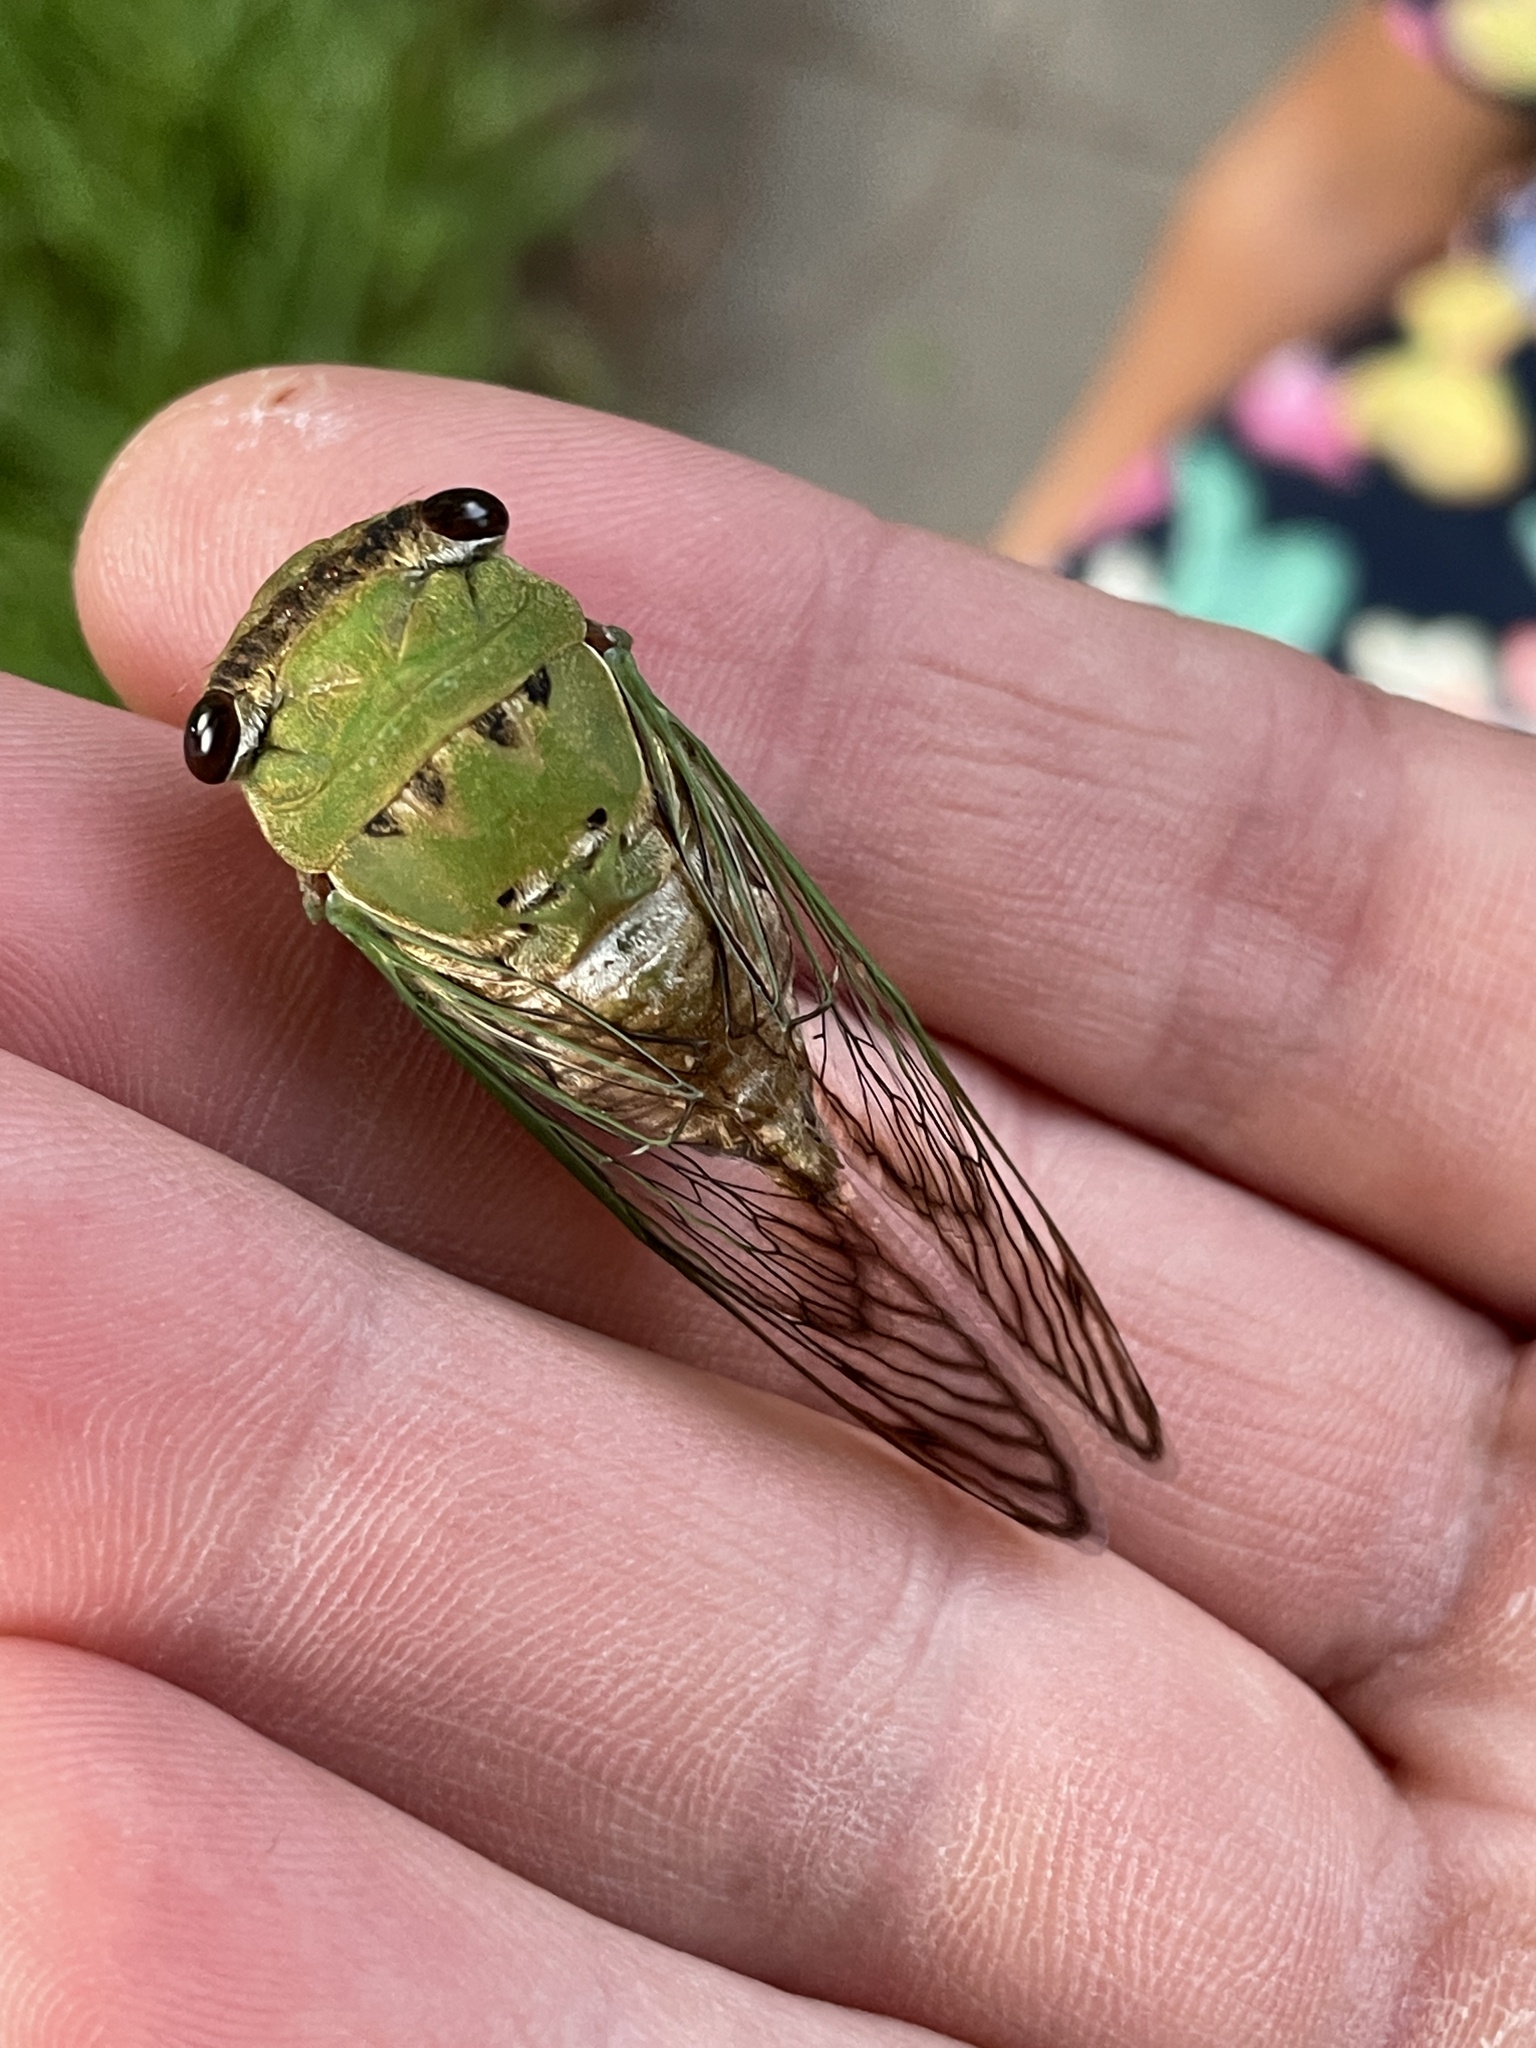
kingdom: Animalia
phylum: Arthropoda
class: Insecta
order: Hemiptera
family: Cicadidae
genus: Neotibicen
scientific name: Neotibicen superbus
